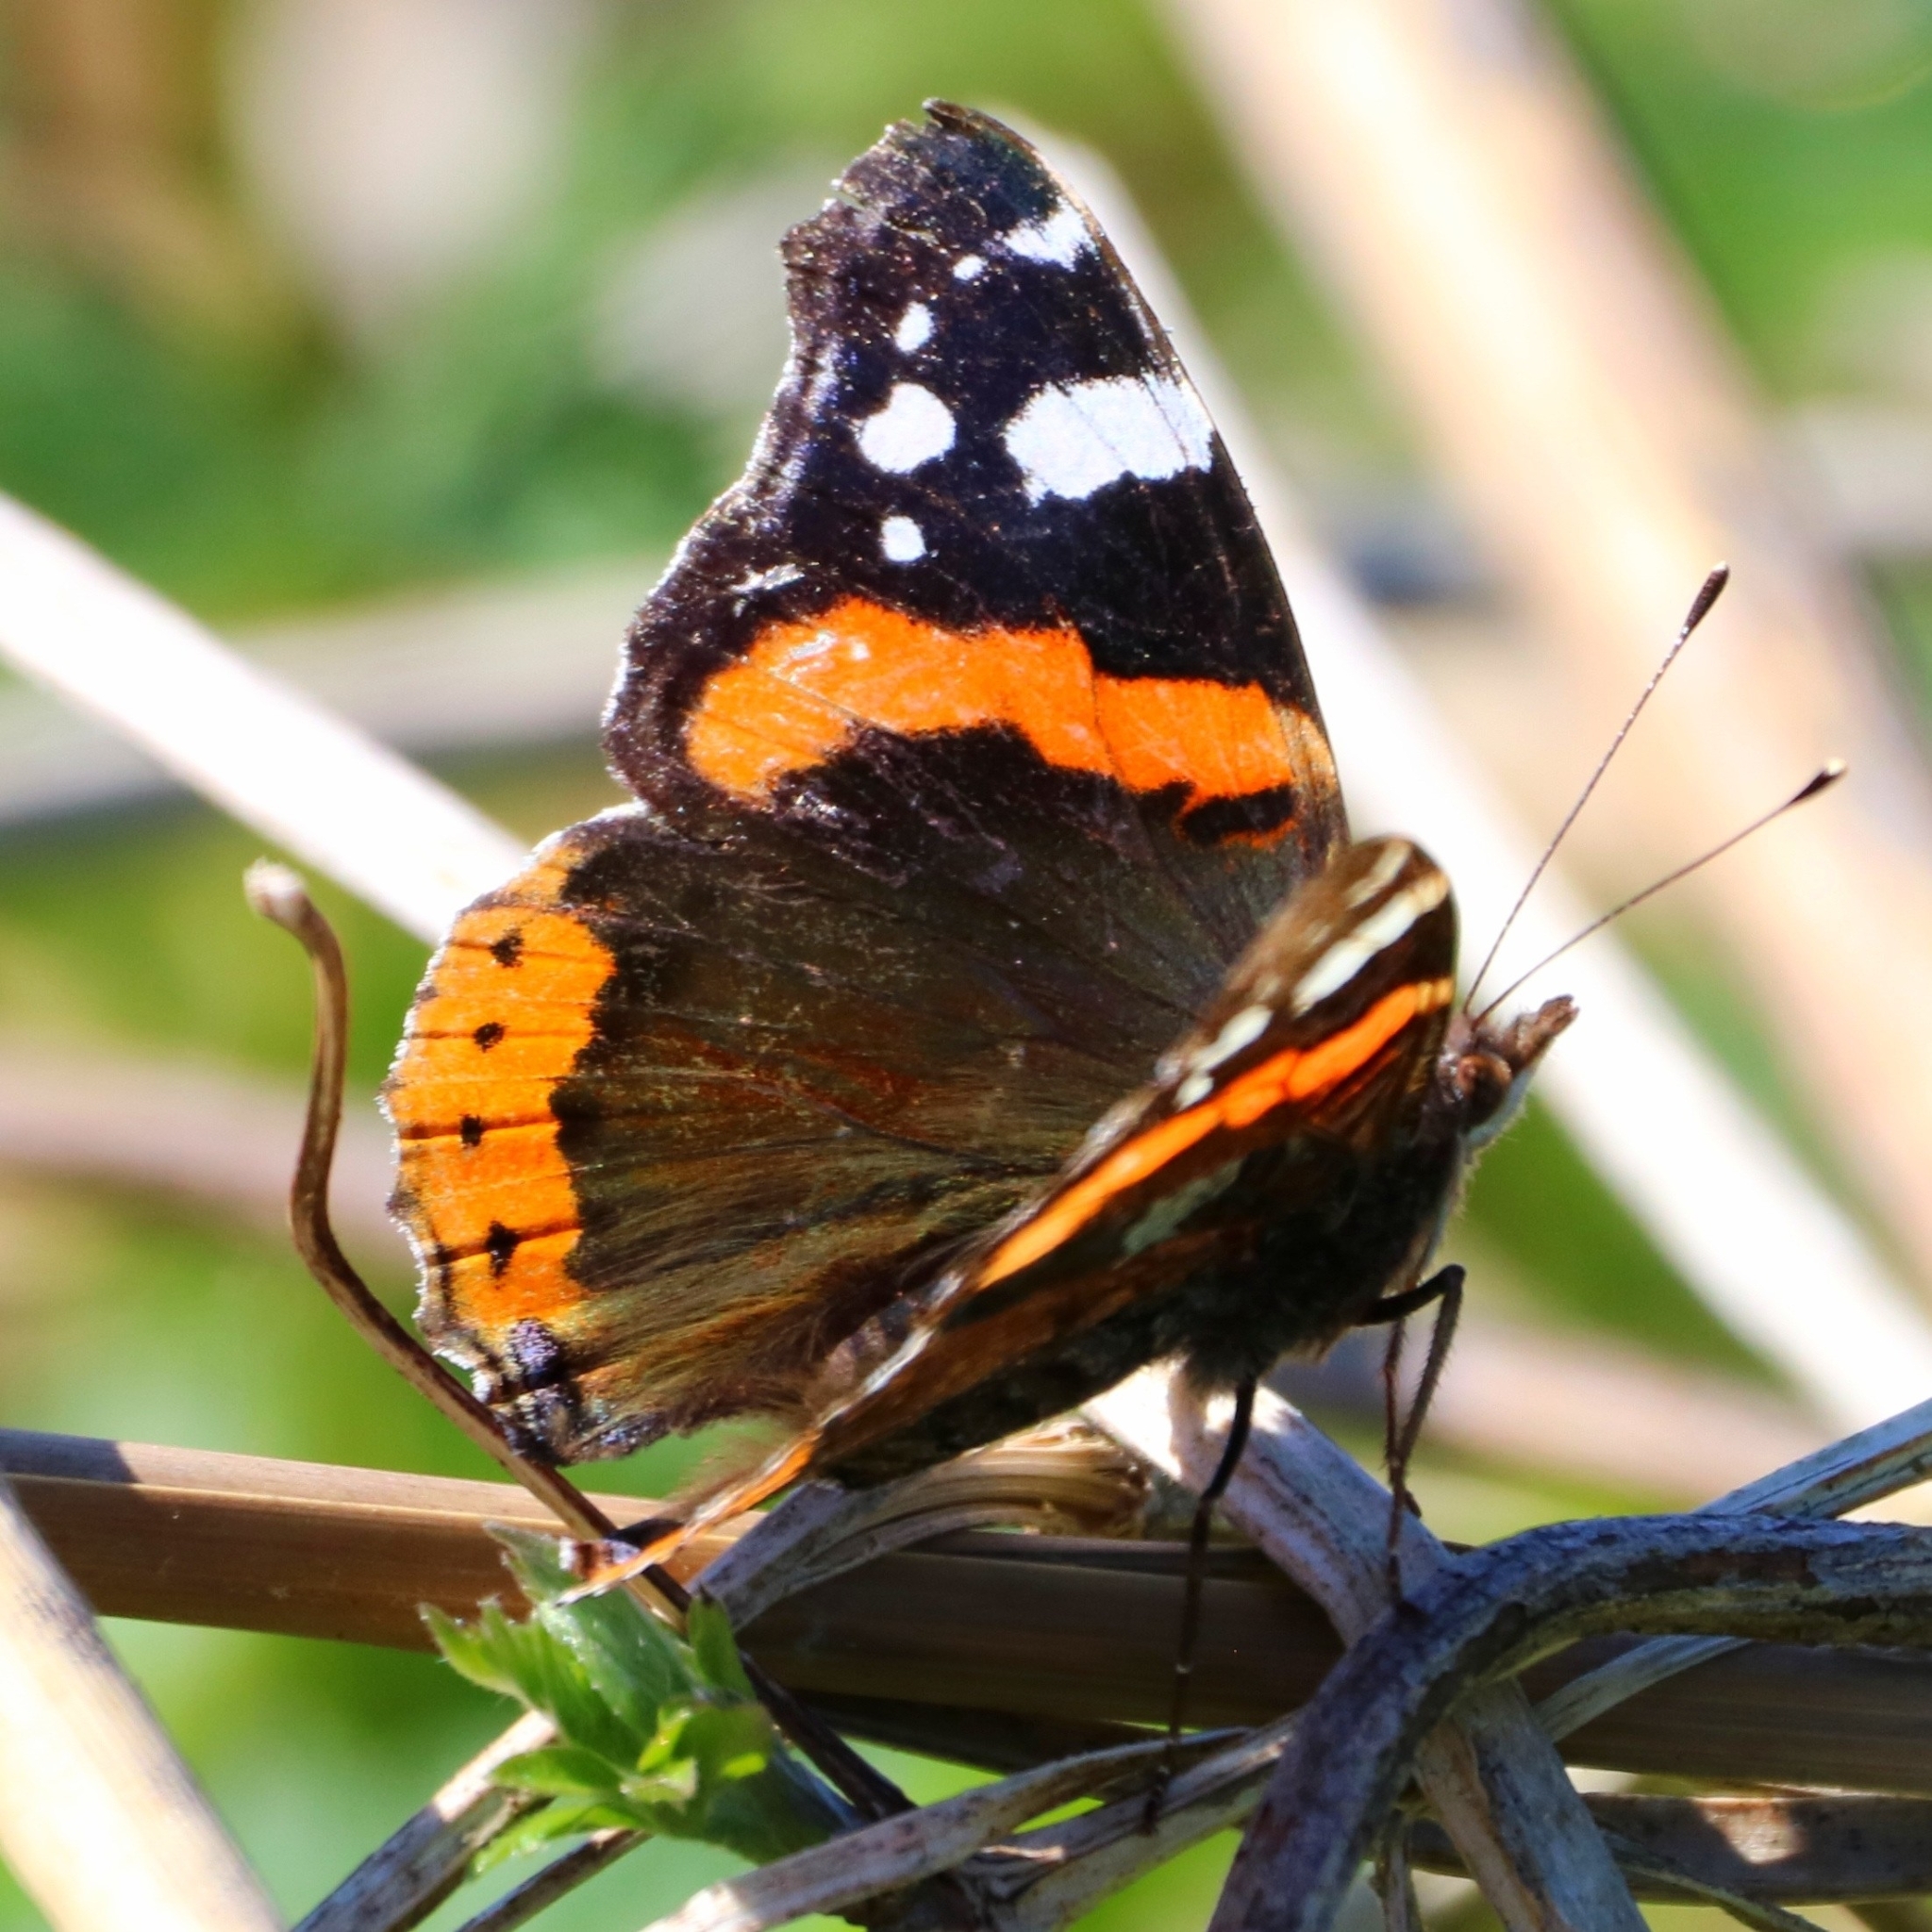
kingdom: Animalia
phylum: Arthropoda
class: Insecta
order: Lepidoptera
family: Nymphalidae
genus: Vanessa
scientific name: Vanessa atalanta
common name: Red admiral
